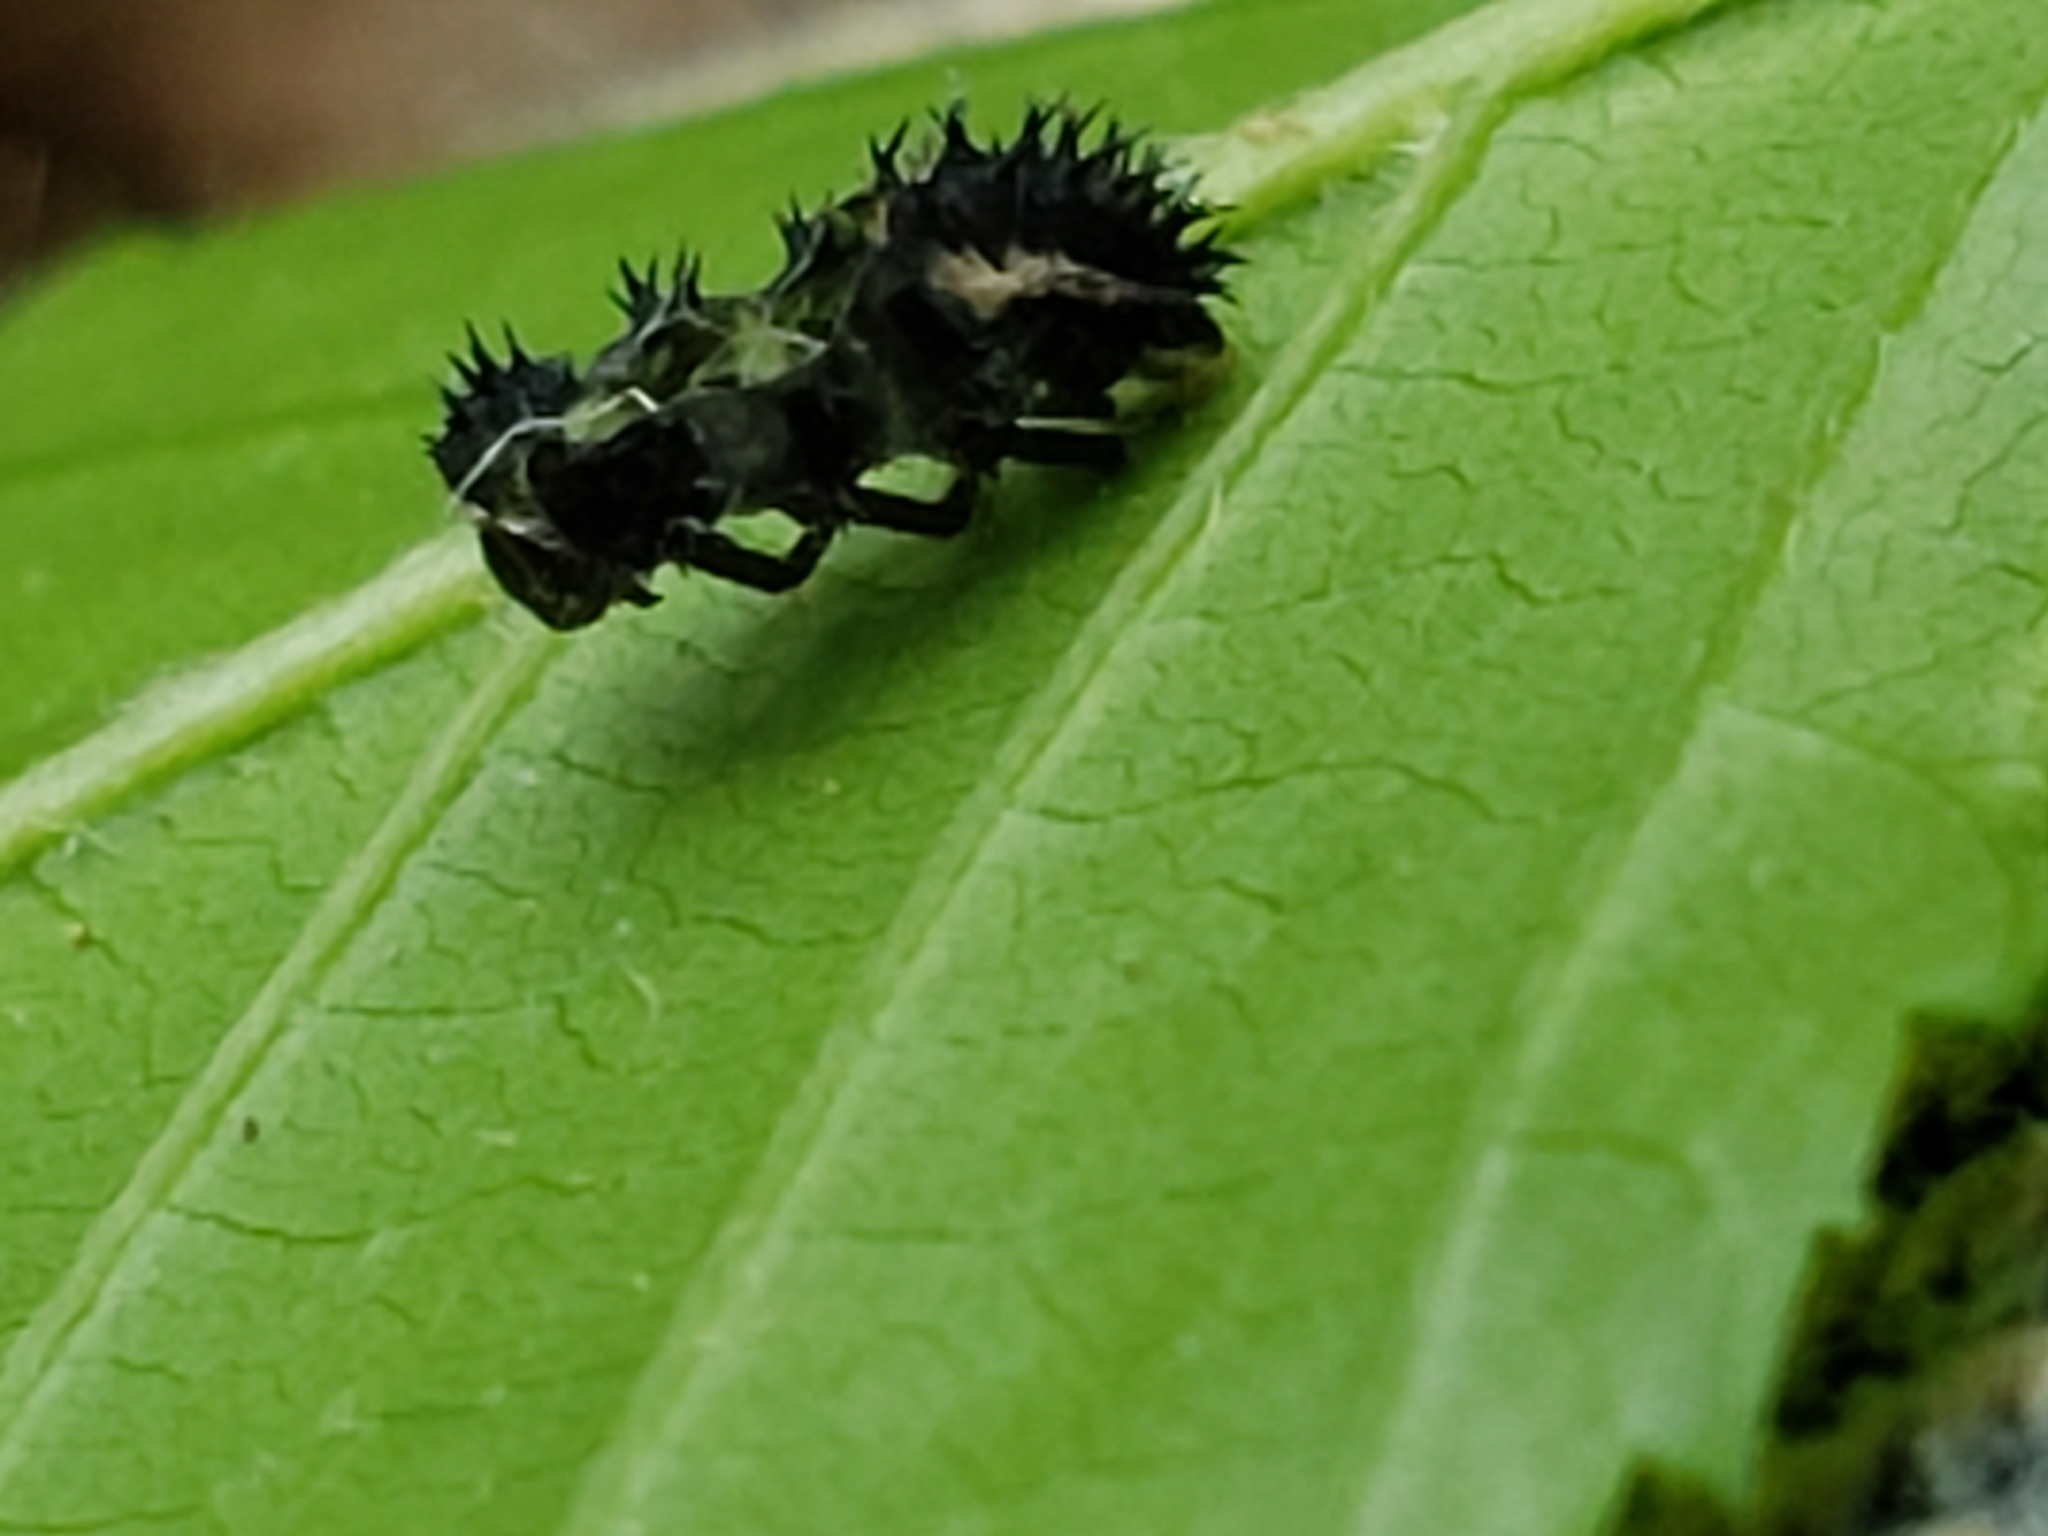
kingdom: Animalia
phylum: Arthropoda
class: Insecta
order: Coleoptera
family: Coccinellidae
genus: Harmonia
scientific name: Harmonia axyridis
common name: Harlequin ladybird
